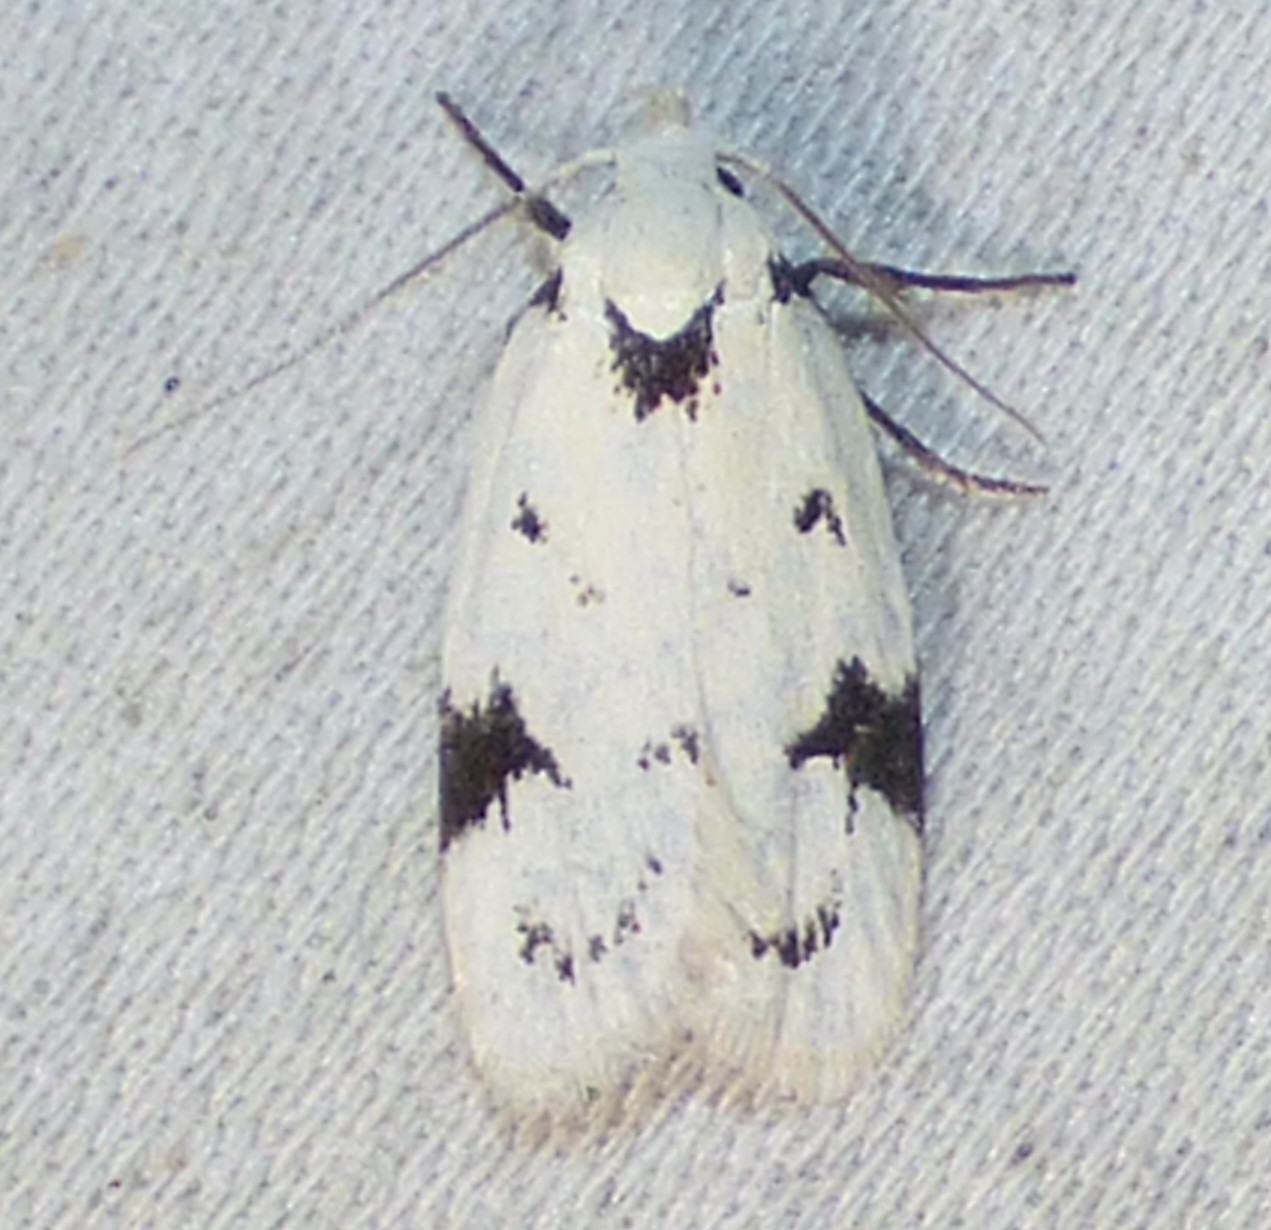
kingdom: Animalia
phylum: Arthropoda
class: Insecta
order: Lepidoptera
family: Oecophoridae
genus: Inga
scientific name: Inga sparsiciliella
